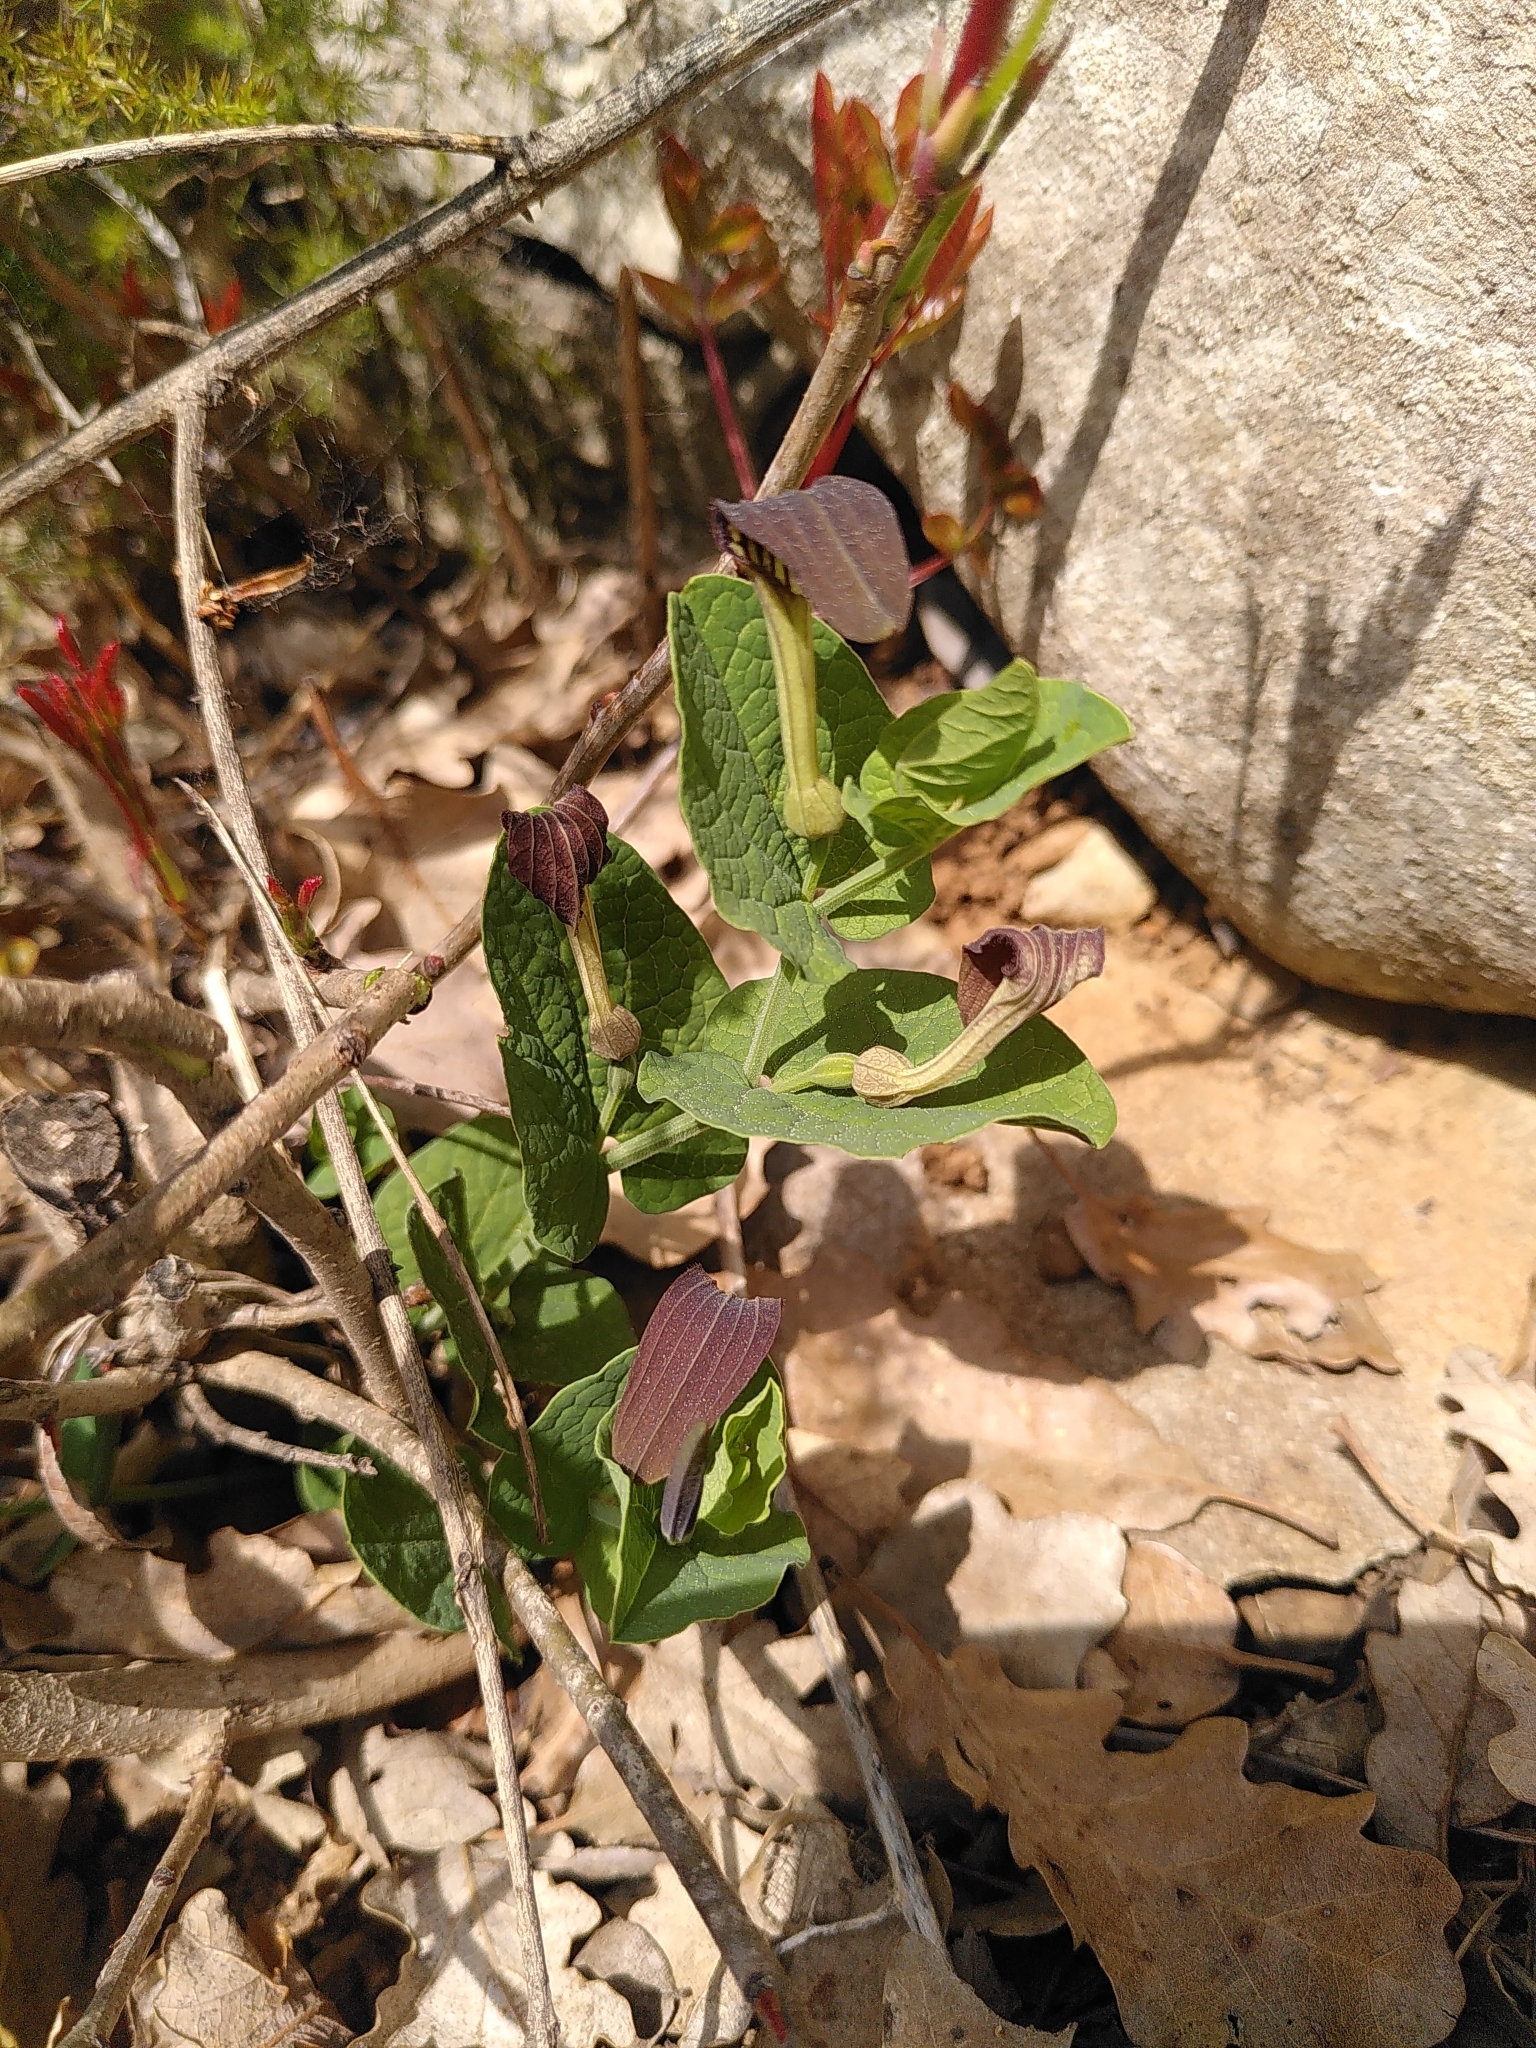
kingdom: Plantae
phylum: Tracheophyta
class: Magnoliopsida
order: Piperales
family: Aristolochiaceae
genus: Aristolochia
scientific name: Aristolochia rotunda
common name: Smearwort
